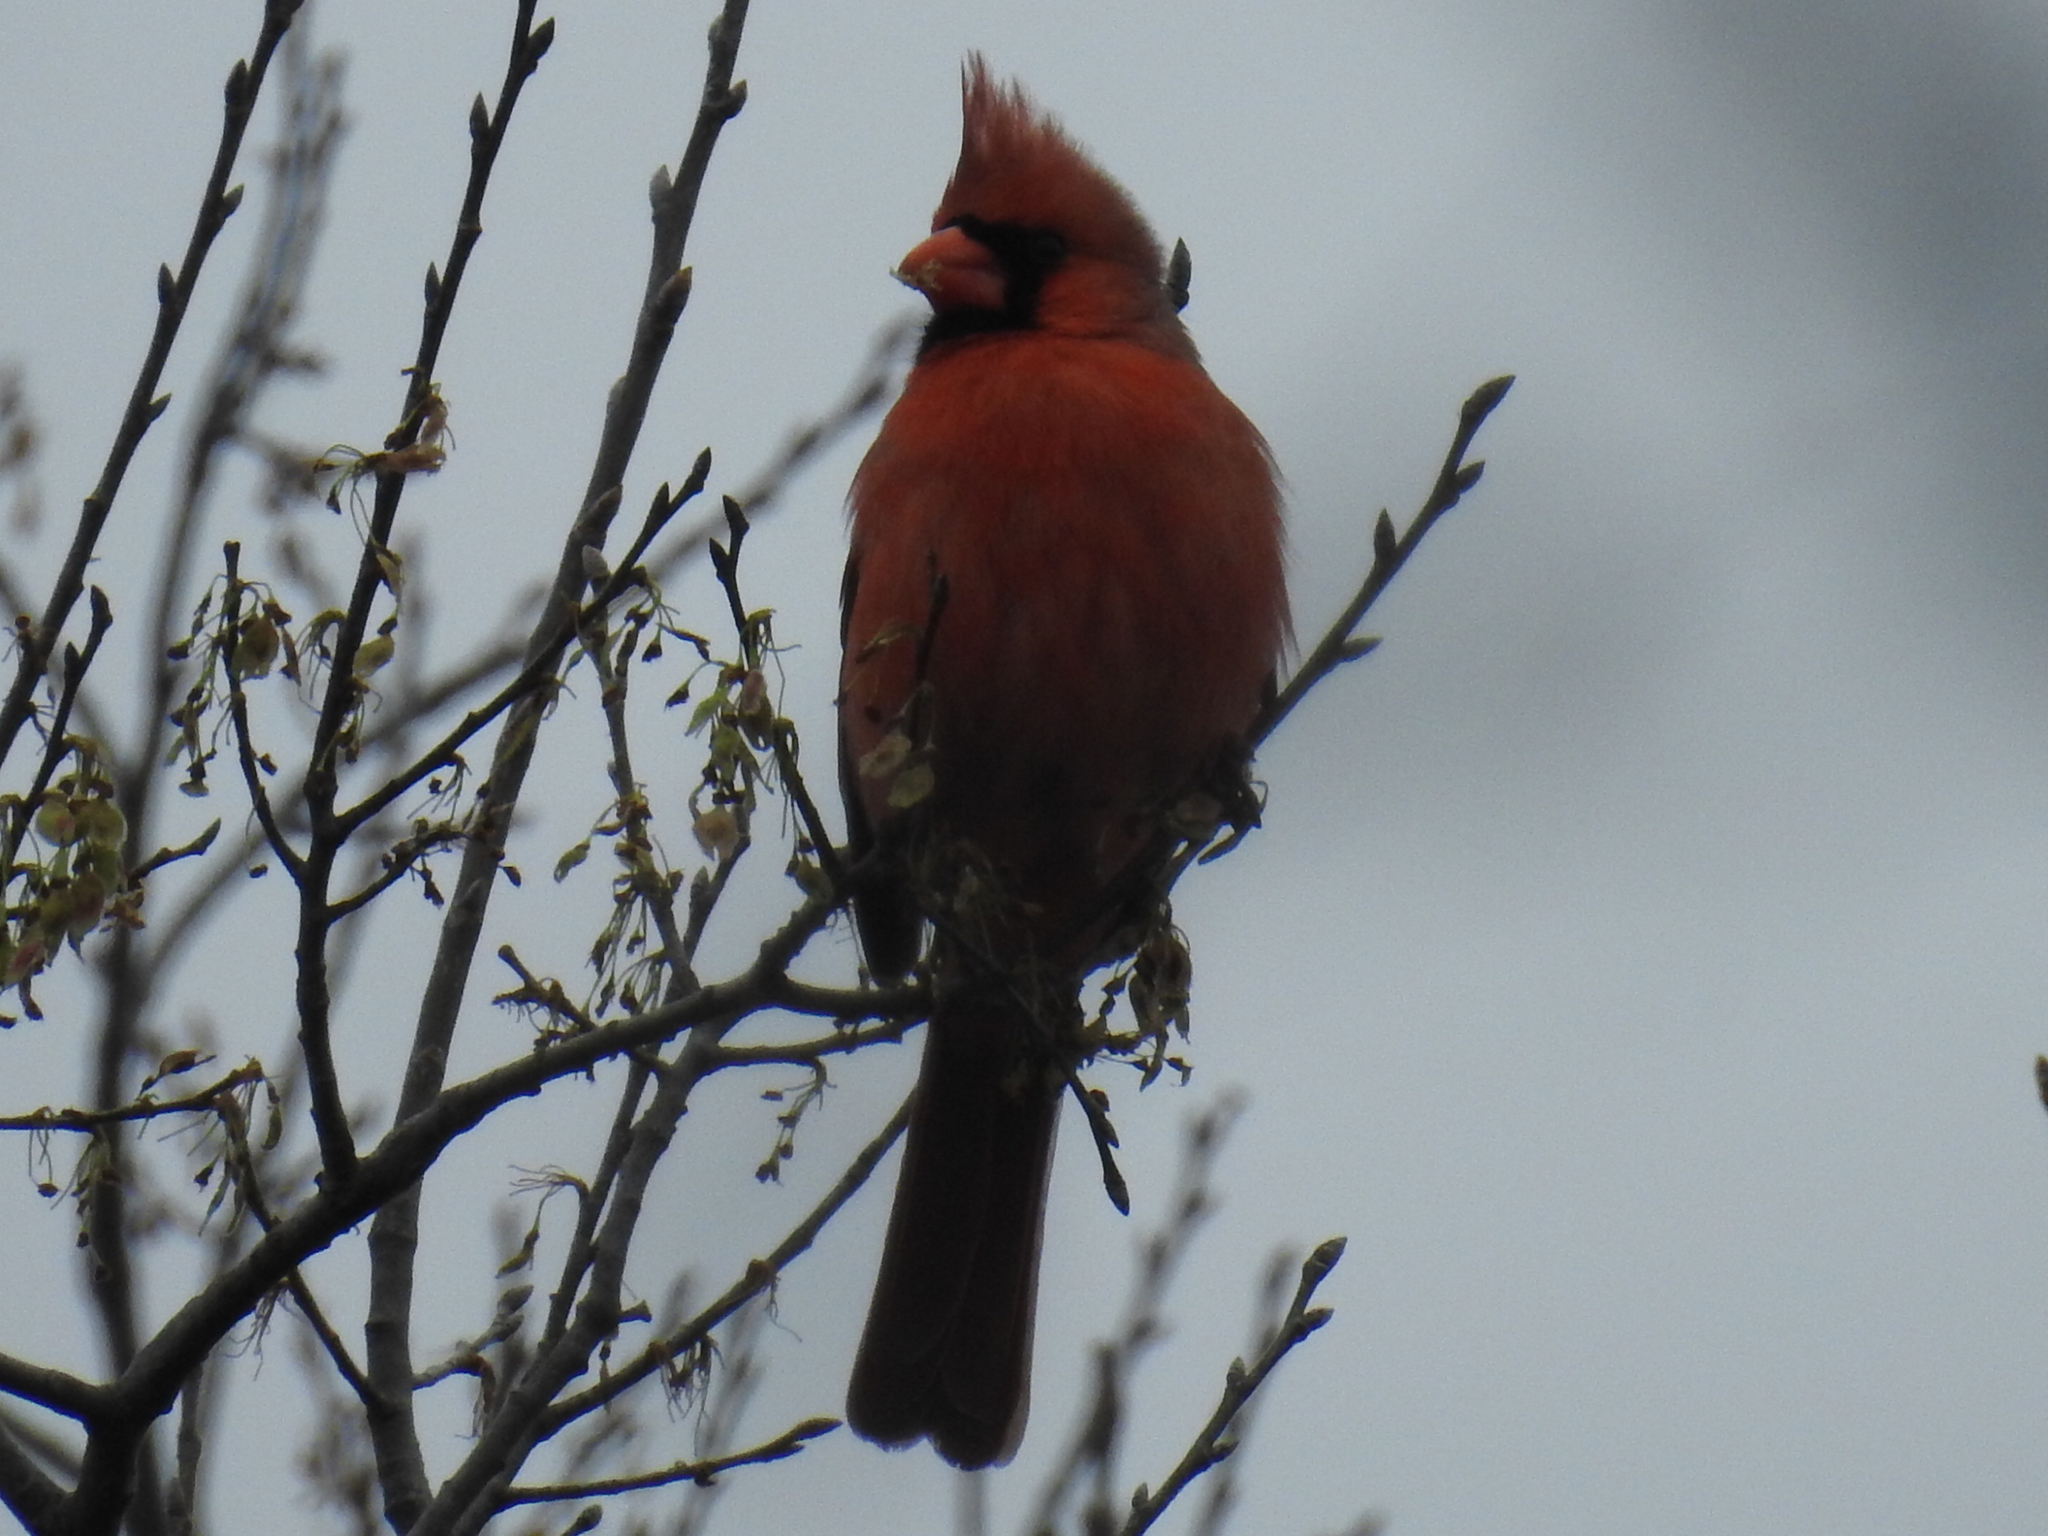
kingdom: Animalia
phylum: Chordata
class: Aves
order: Passeriformes
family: Cardinalidae
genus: Cardinalis
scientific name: Cardinalis cardinalis
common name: Northern cardinal
